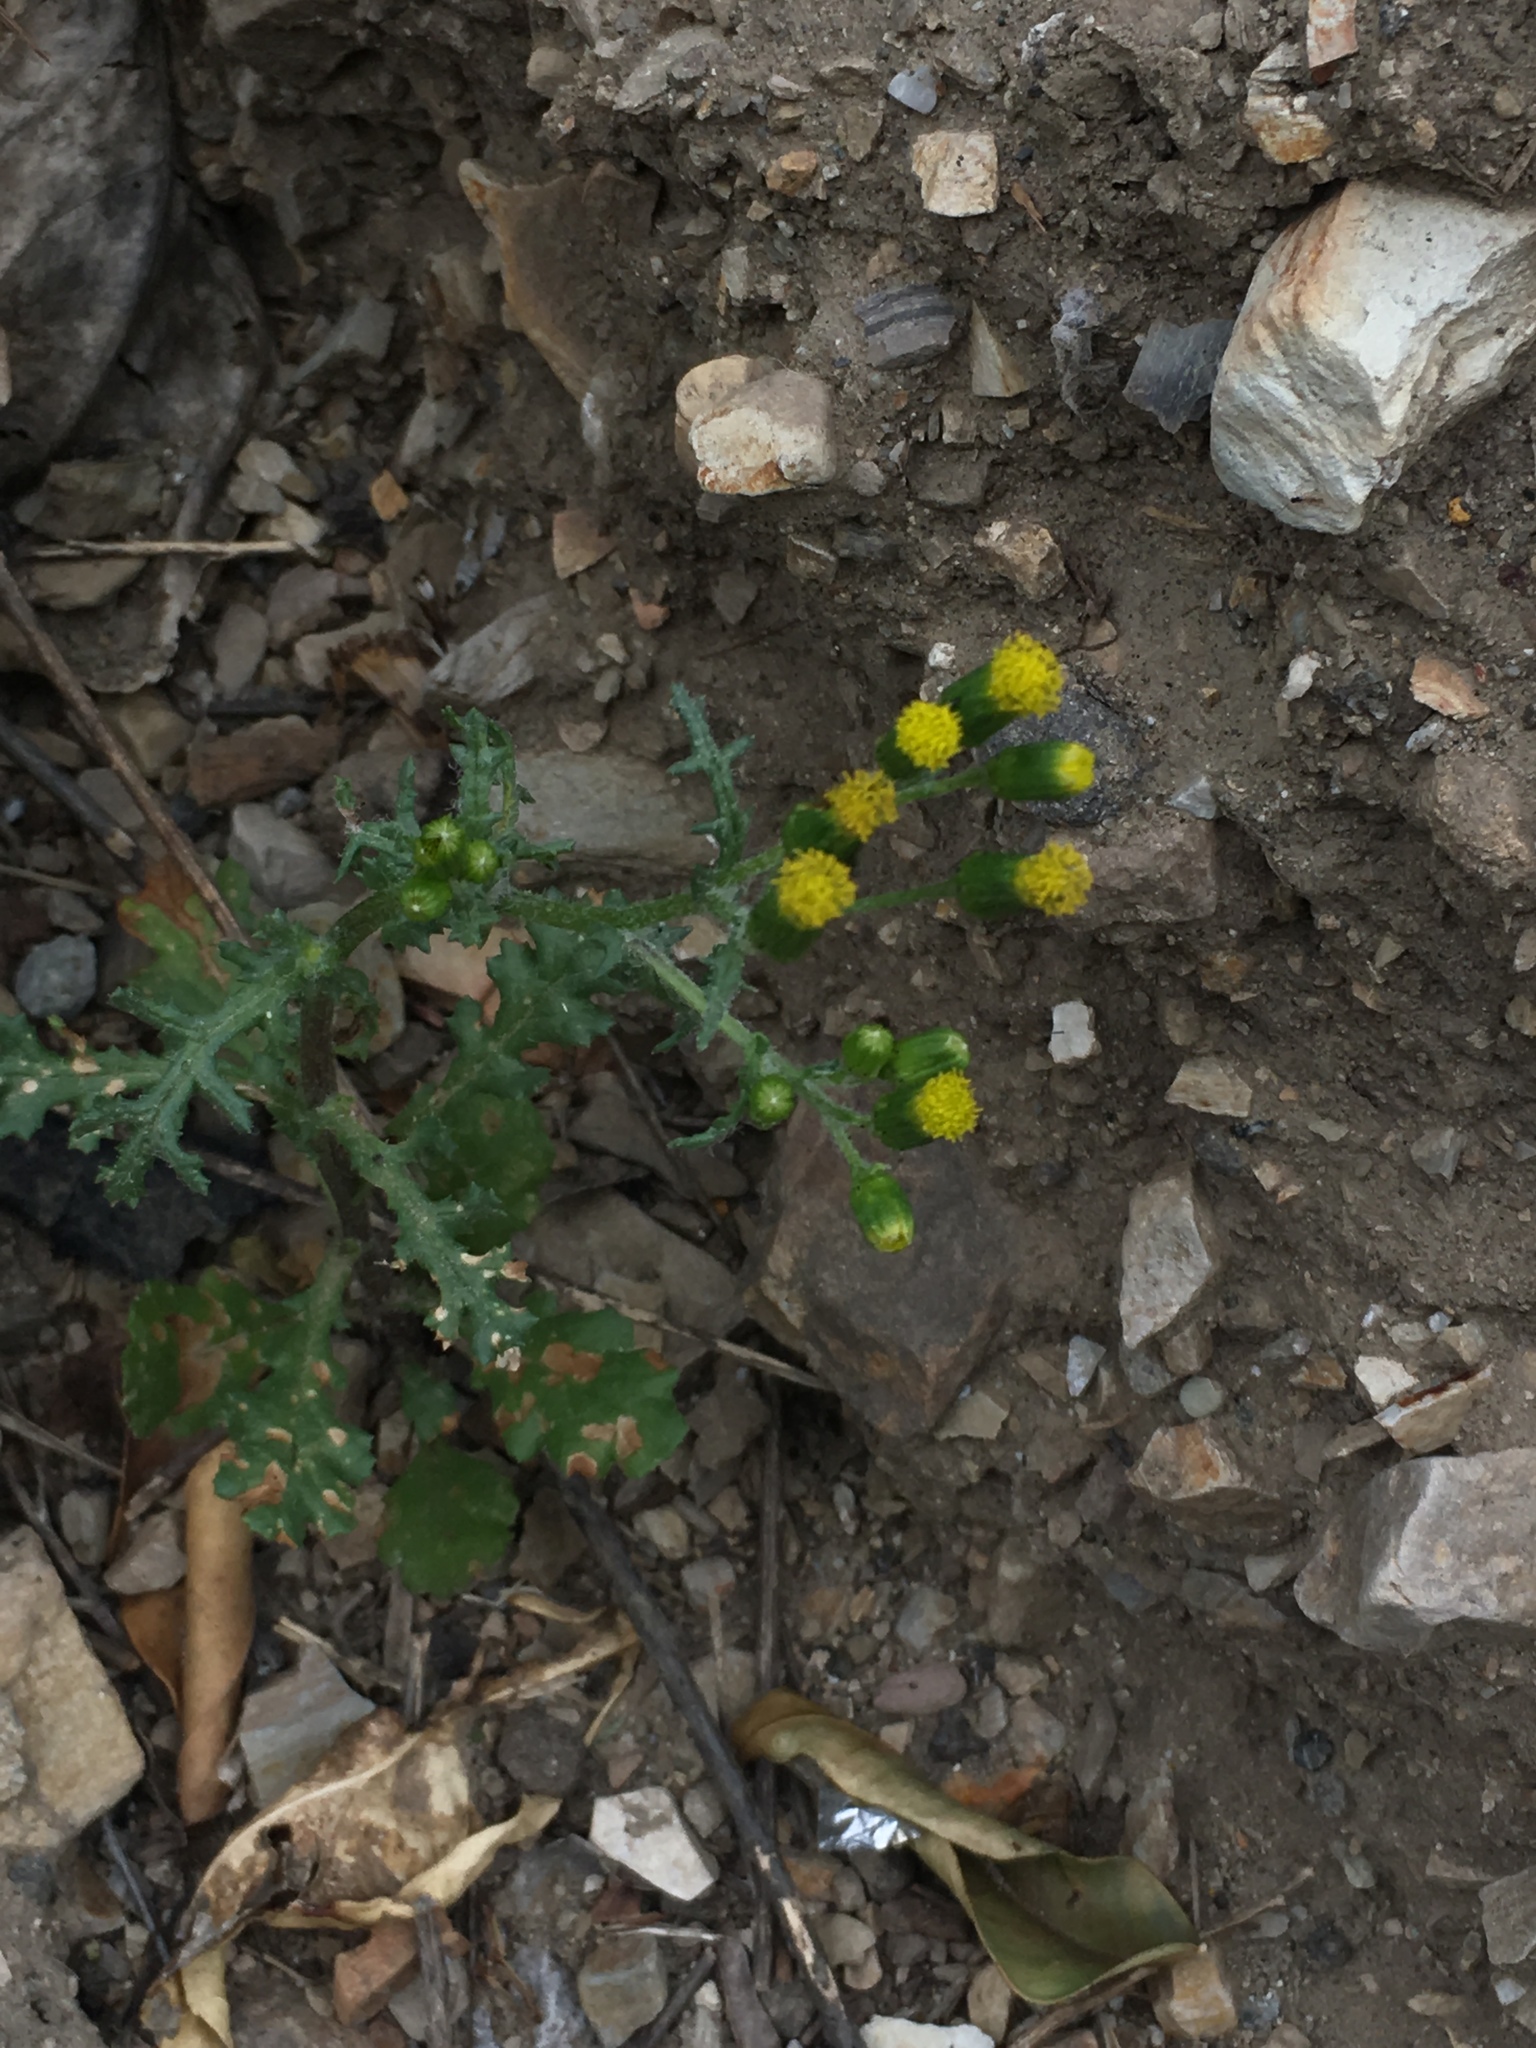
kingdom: Plantae
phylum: Tracheophyta
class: Magnoliopsida
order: Asterales
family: Asteraceae
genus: Senecio
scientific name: Senecio vulgaris
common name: Old-man-in-the-spring
